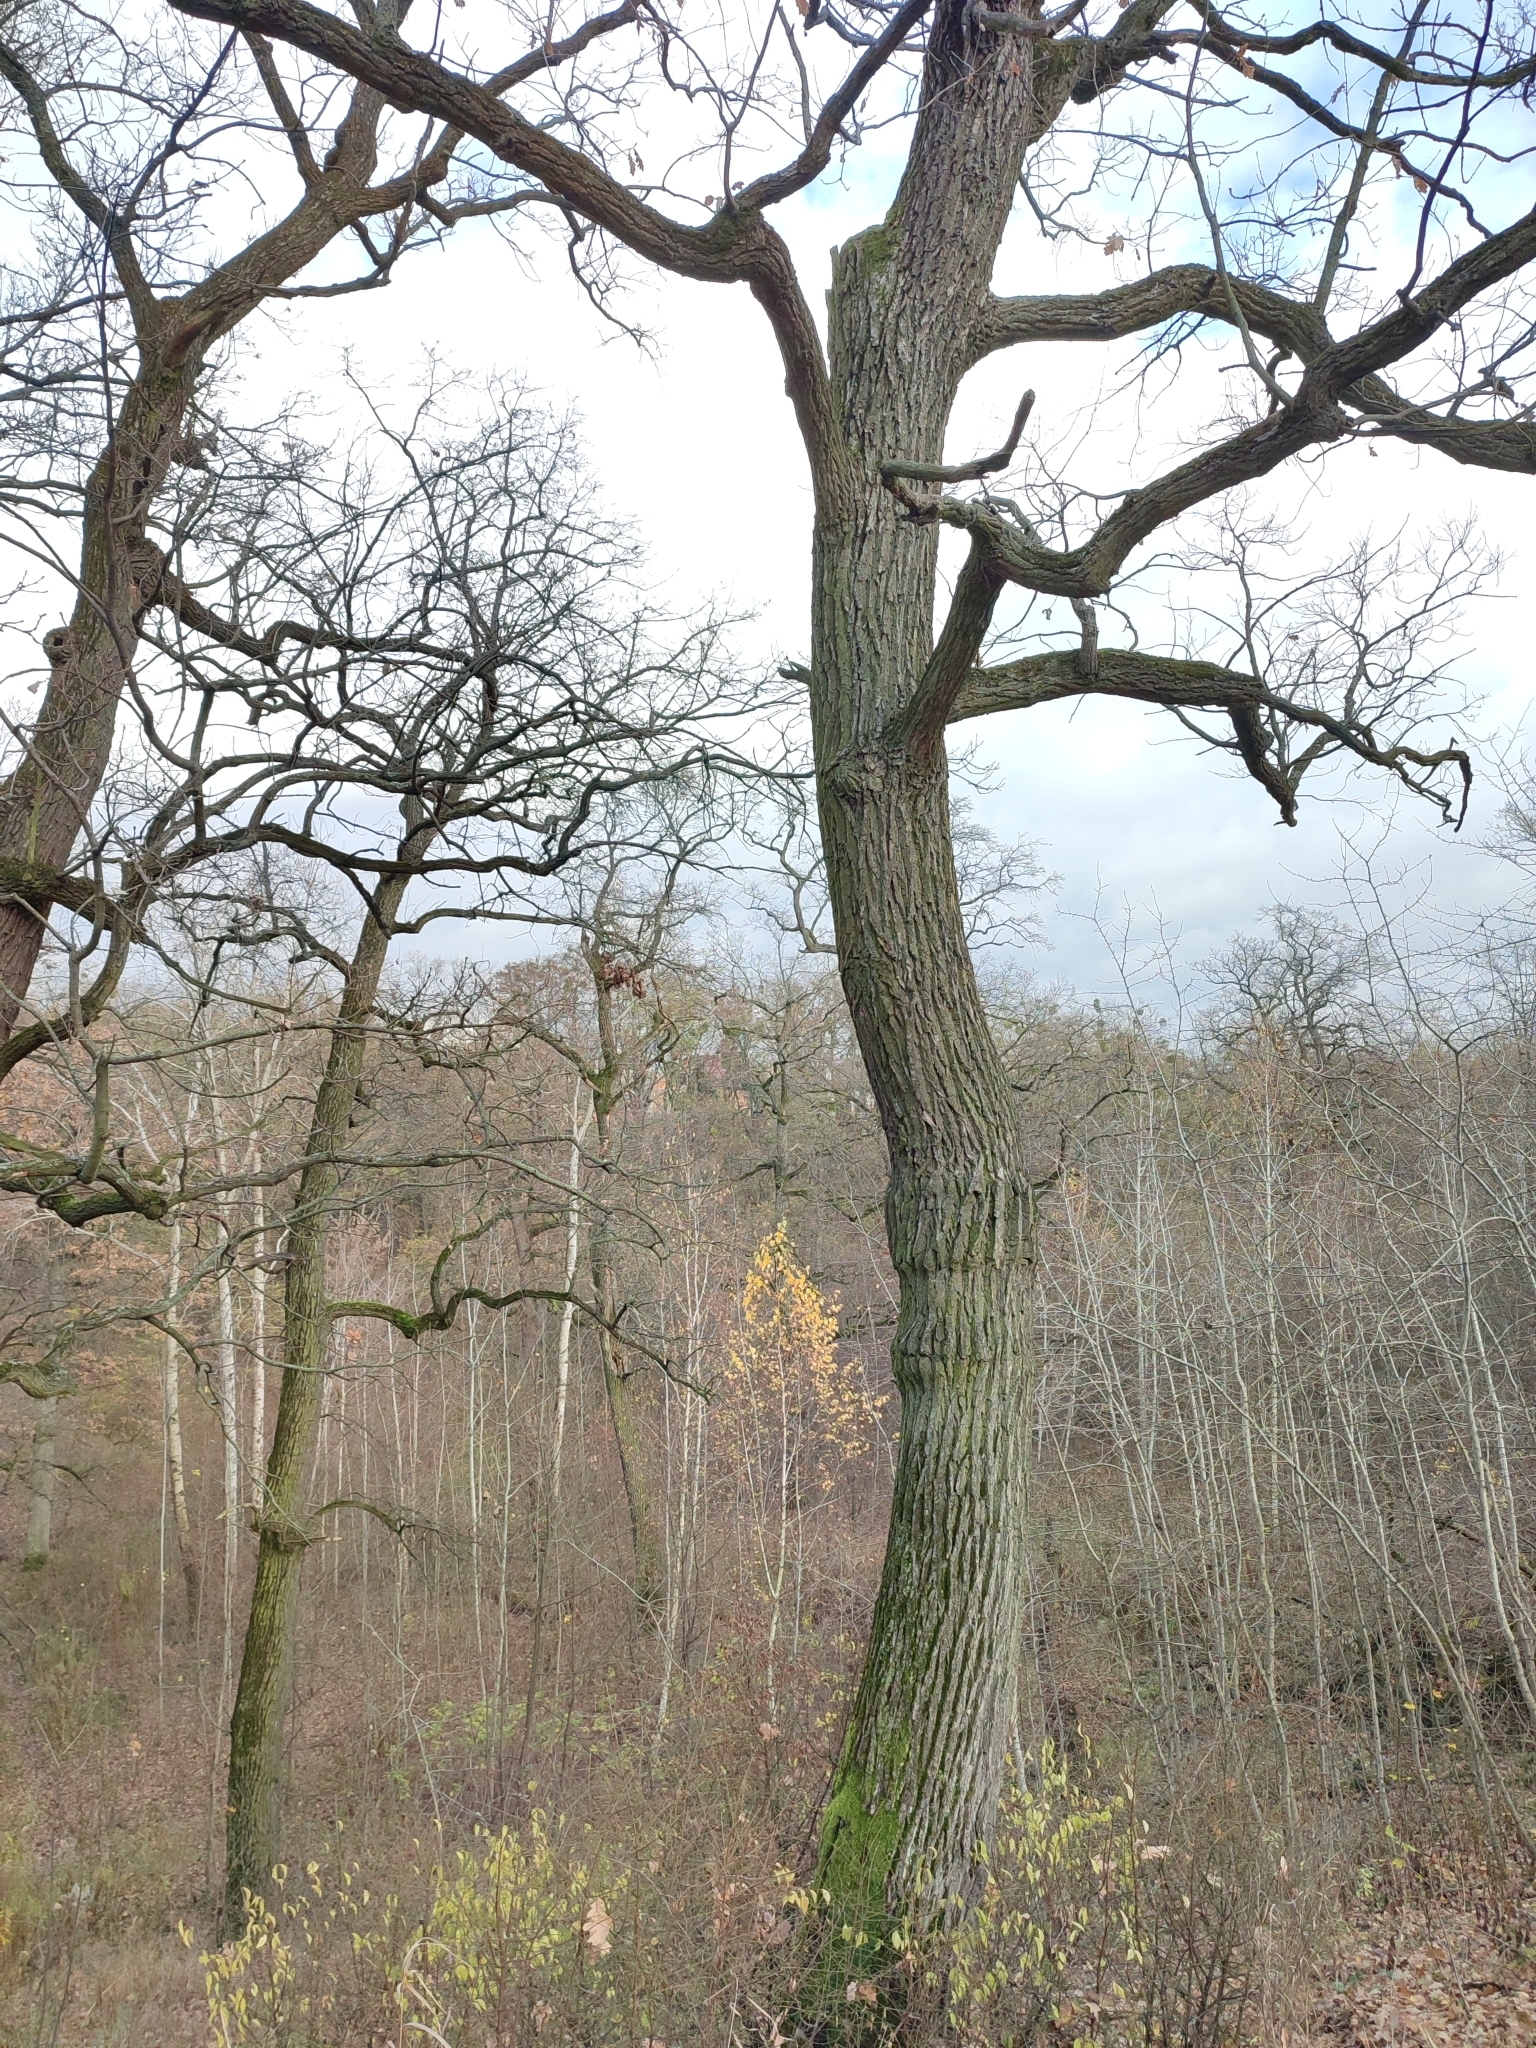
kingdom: Plantae
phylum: Tracheophyta
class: Magnoliopsida
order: Fagales
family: Fagaceae
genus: Quercus
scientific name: Quercus robur
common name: Pedunculate oak
